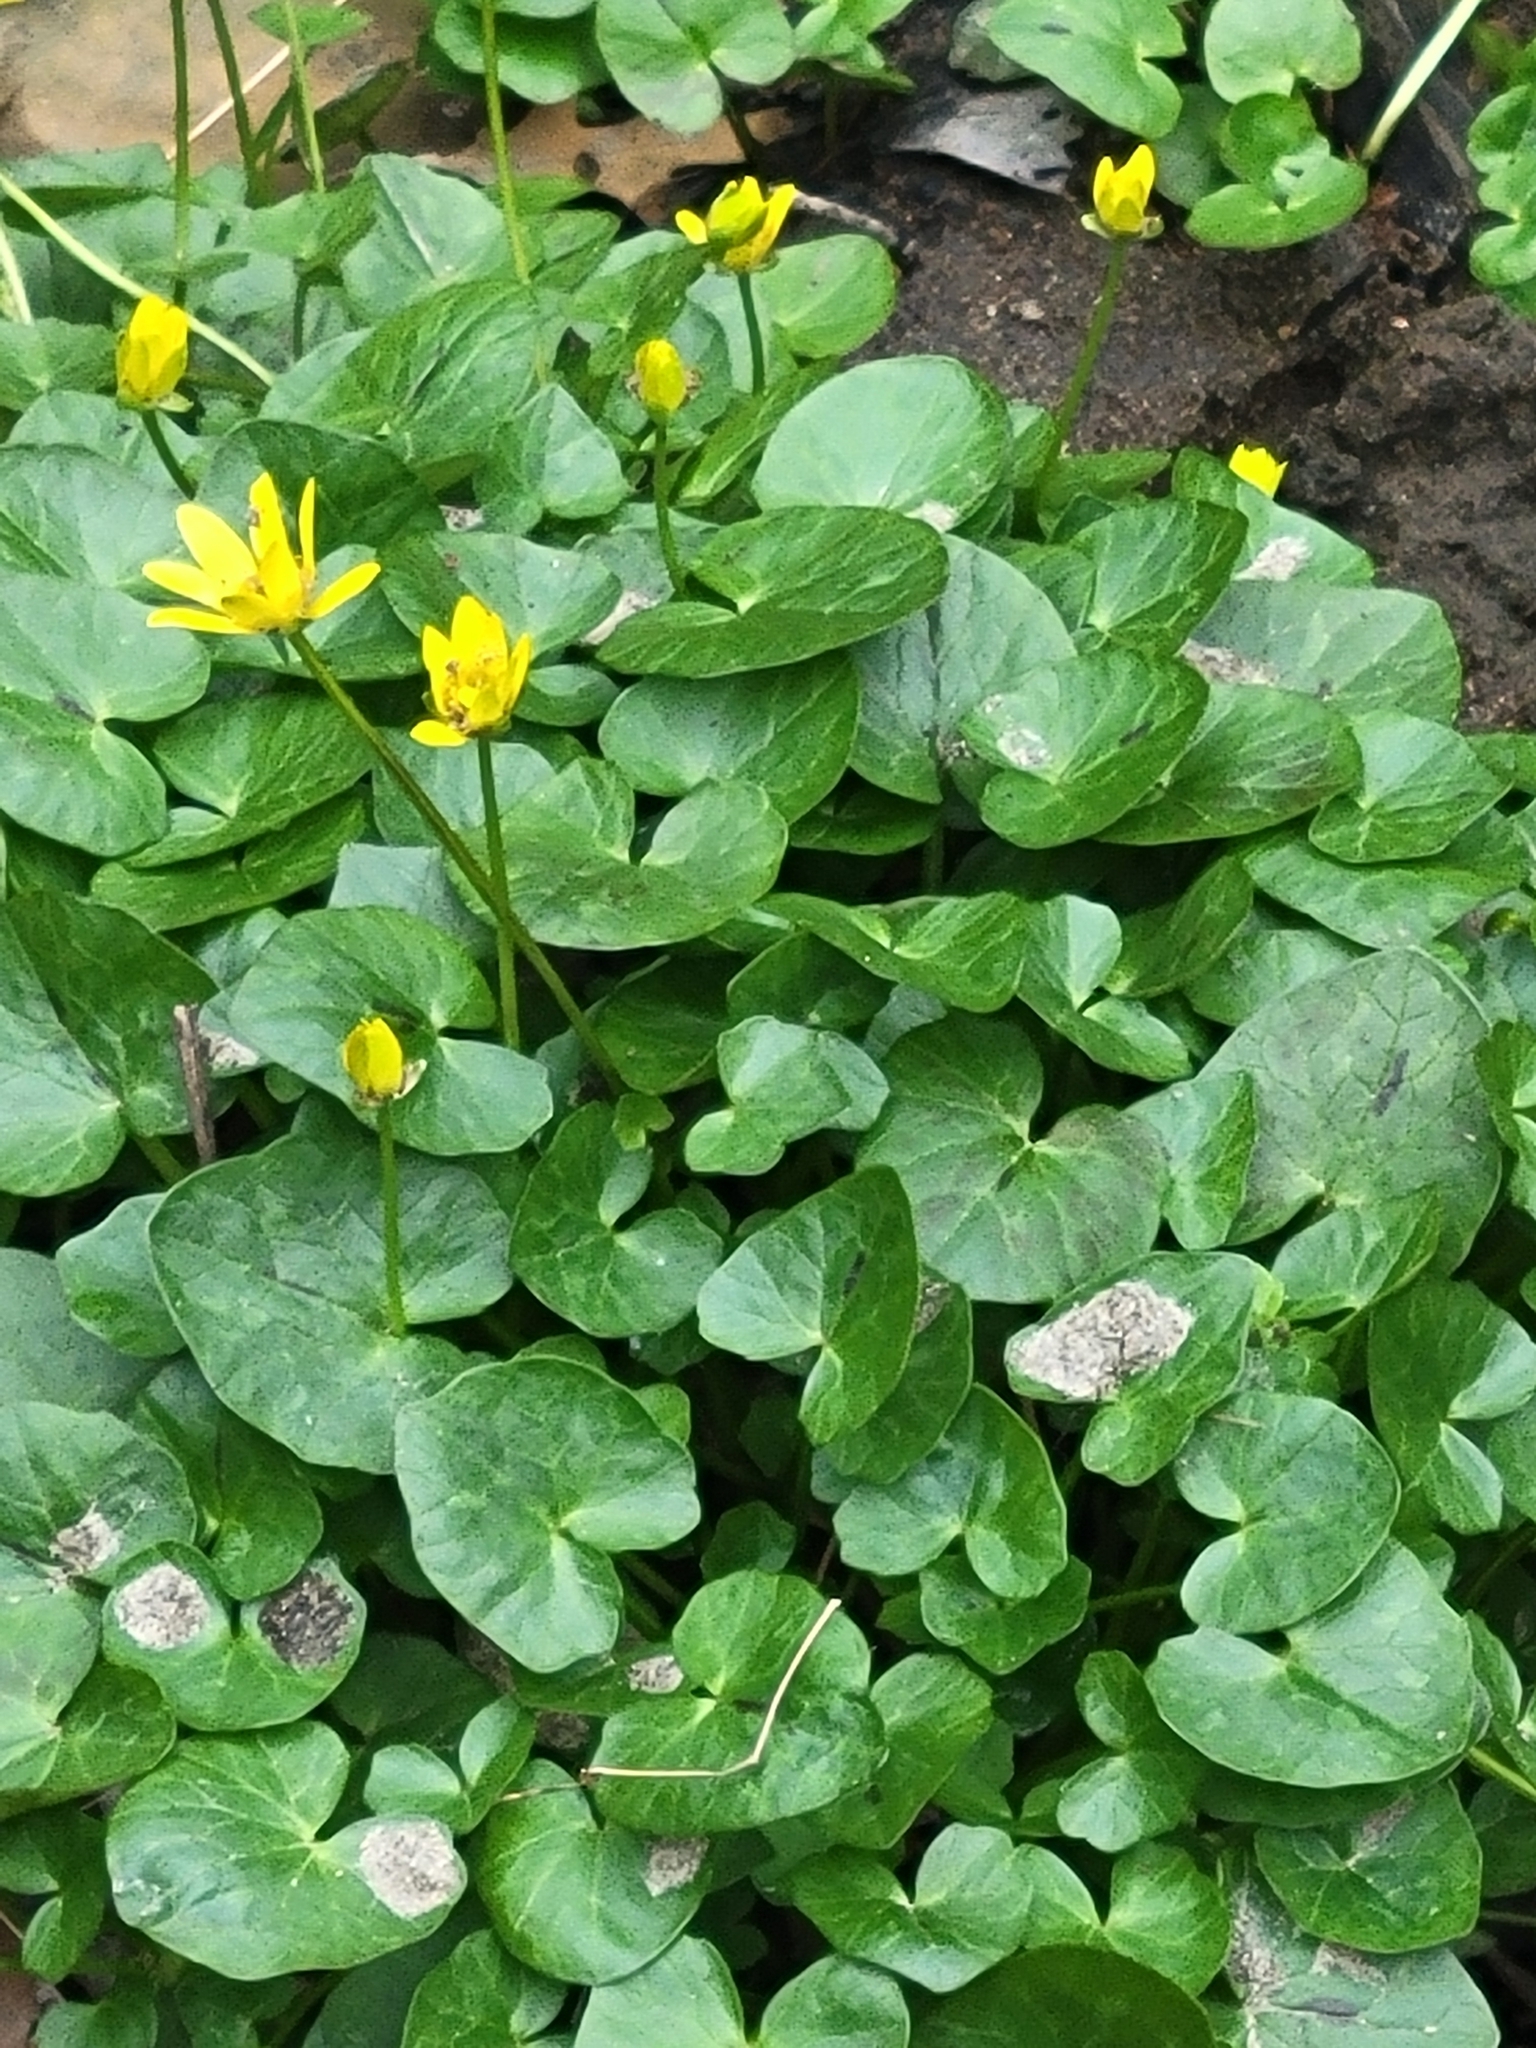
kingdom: Plantae
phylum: Tracheophyta
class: Magnoliopsida
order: Ranunculales
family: Ranunculaceae
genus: Ficaria
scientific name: Ficaria verna
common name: Lesser celandine
